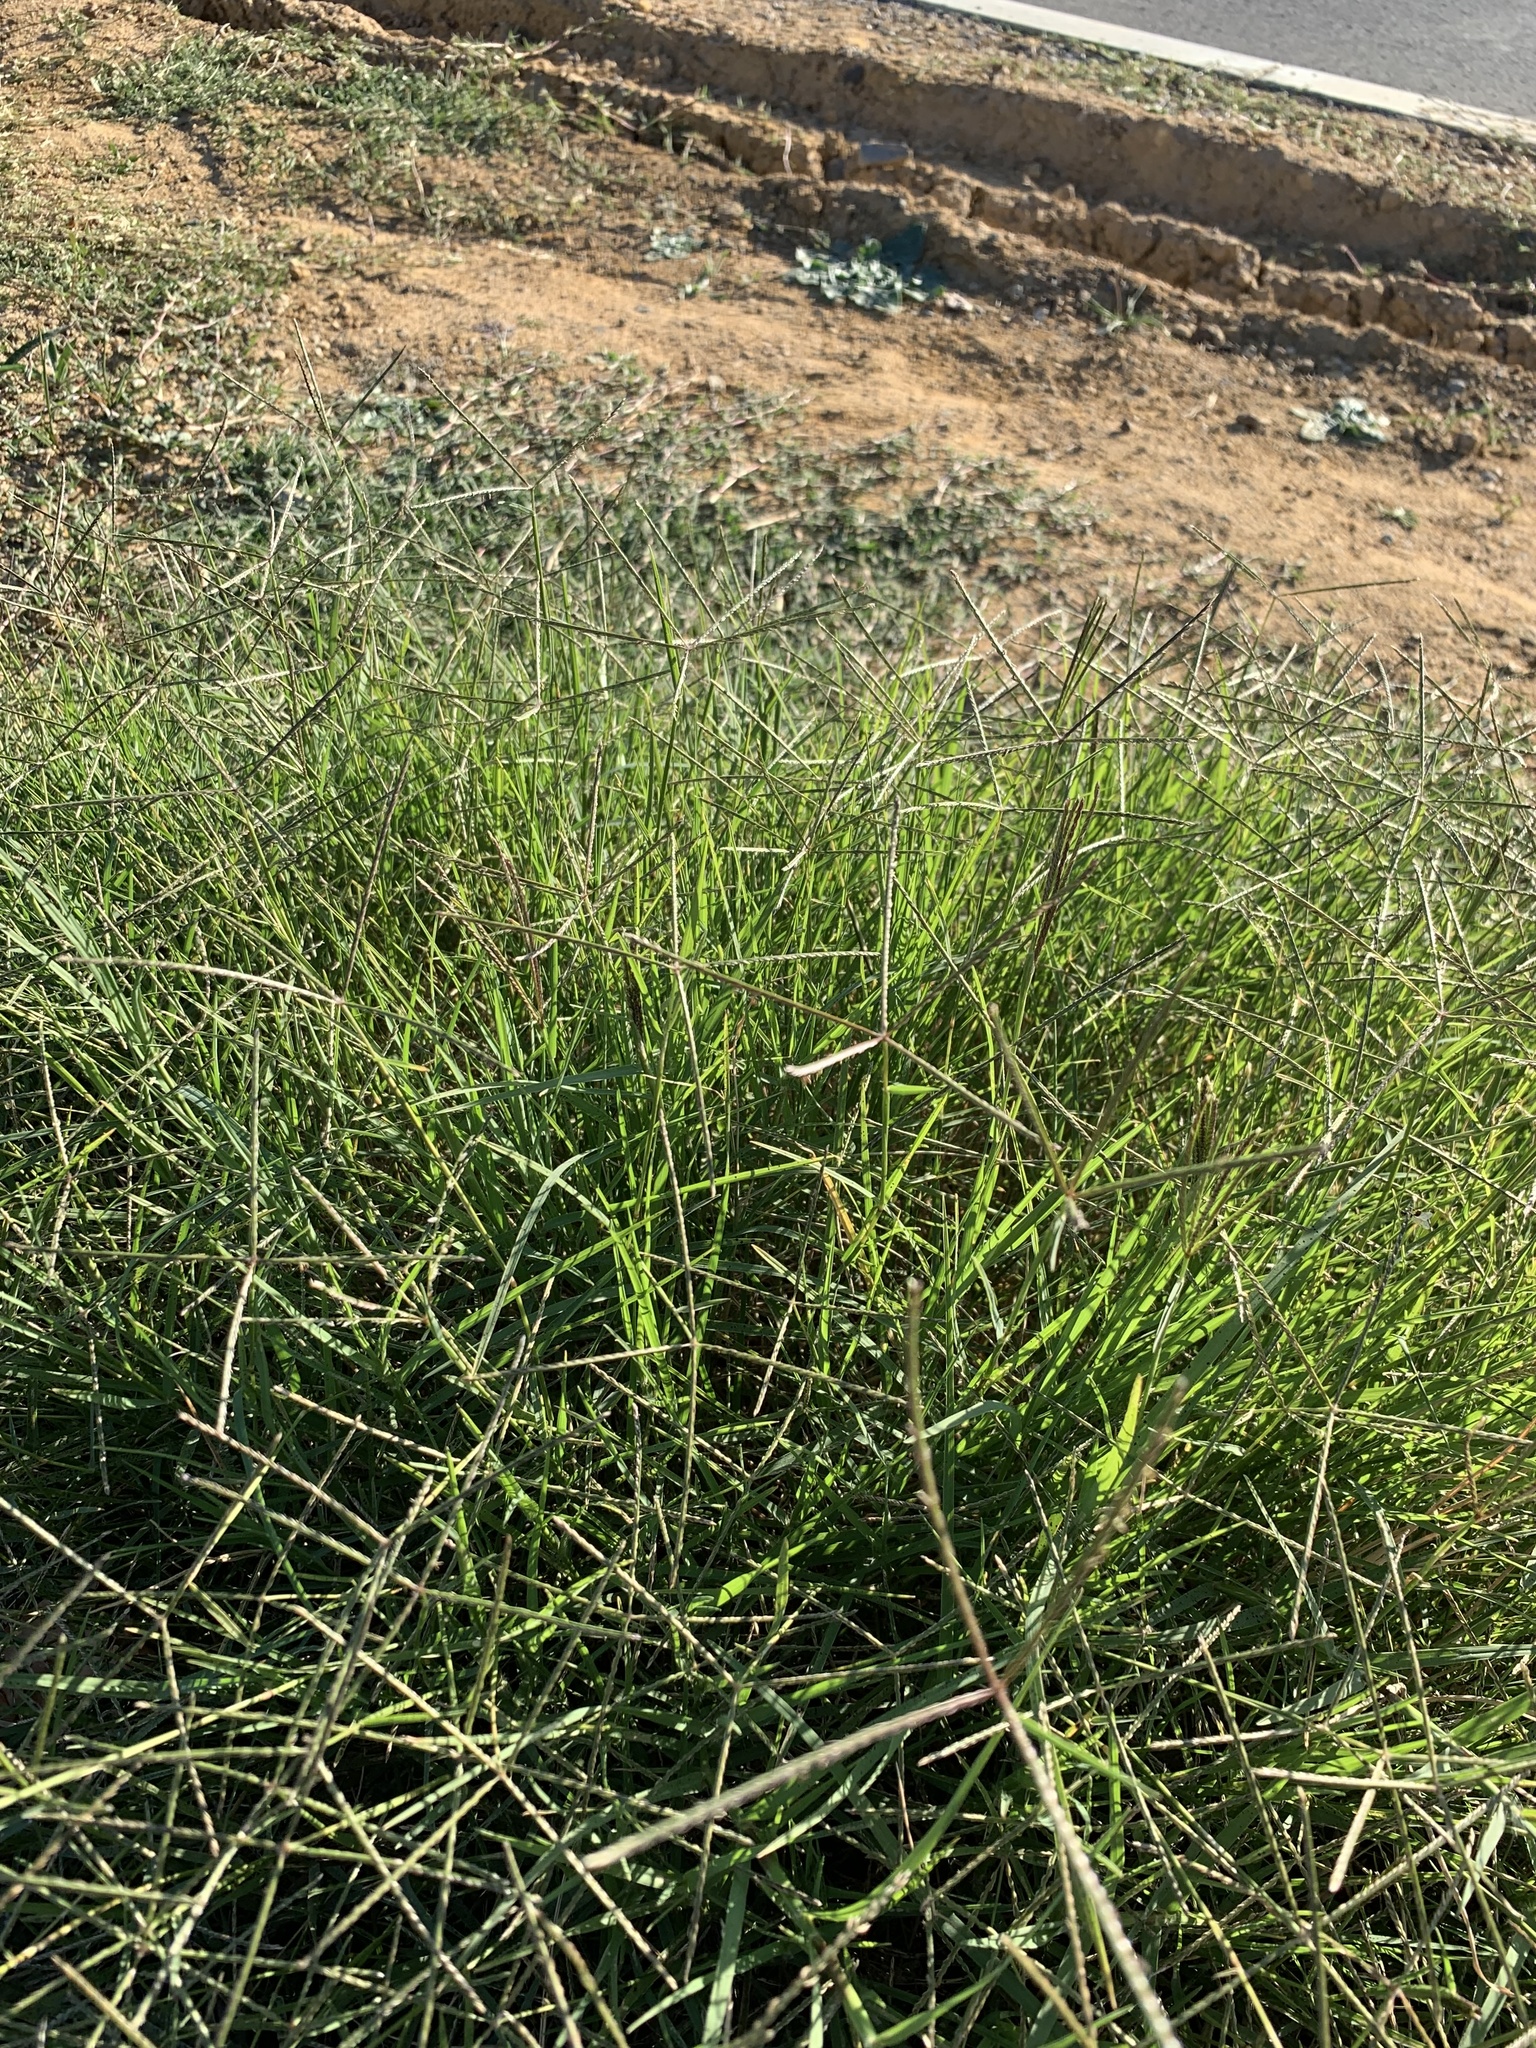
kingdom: Plantae
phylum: Tracheophyta
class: Liliopsida
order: Poales
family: Poaceae
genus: Cynodon
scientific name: Cynodon dactylon
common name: Bermuda grass
